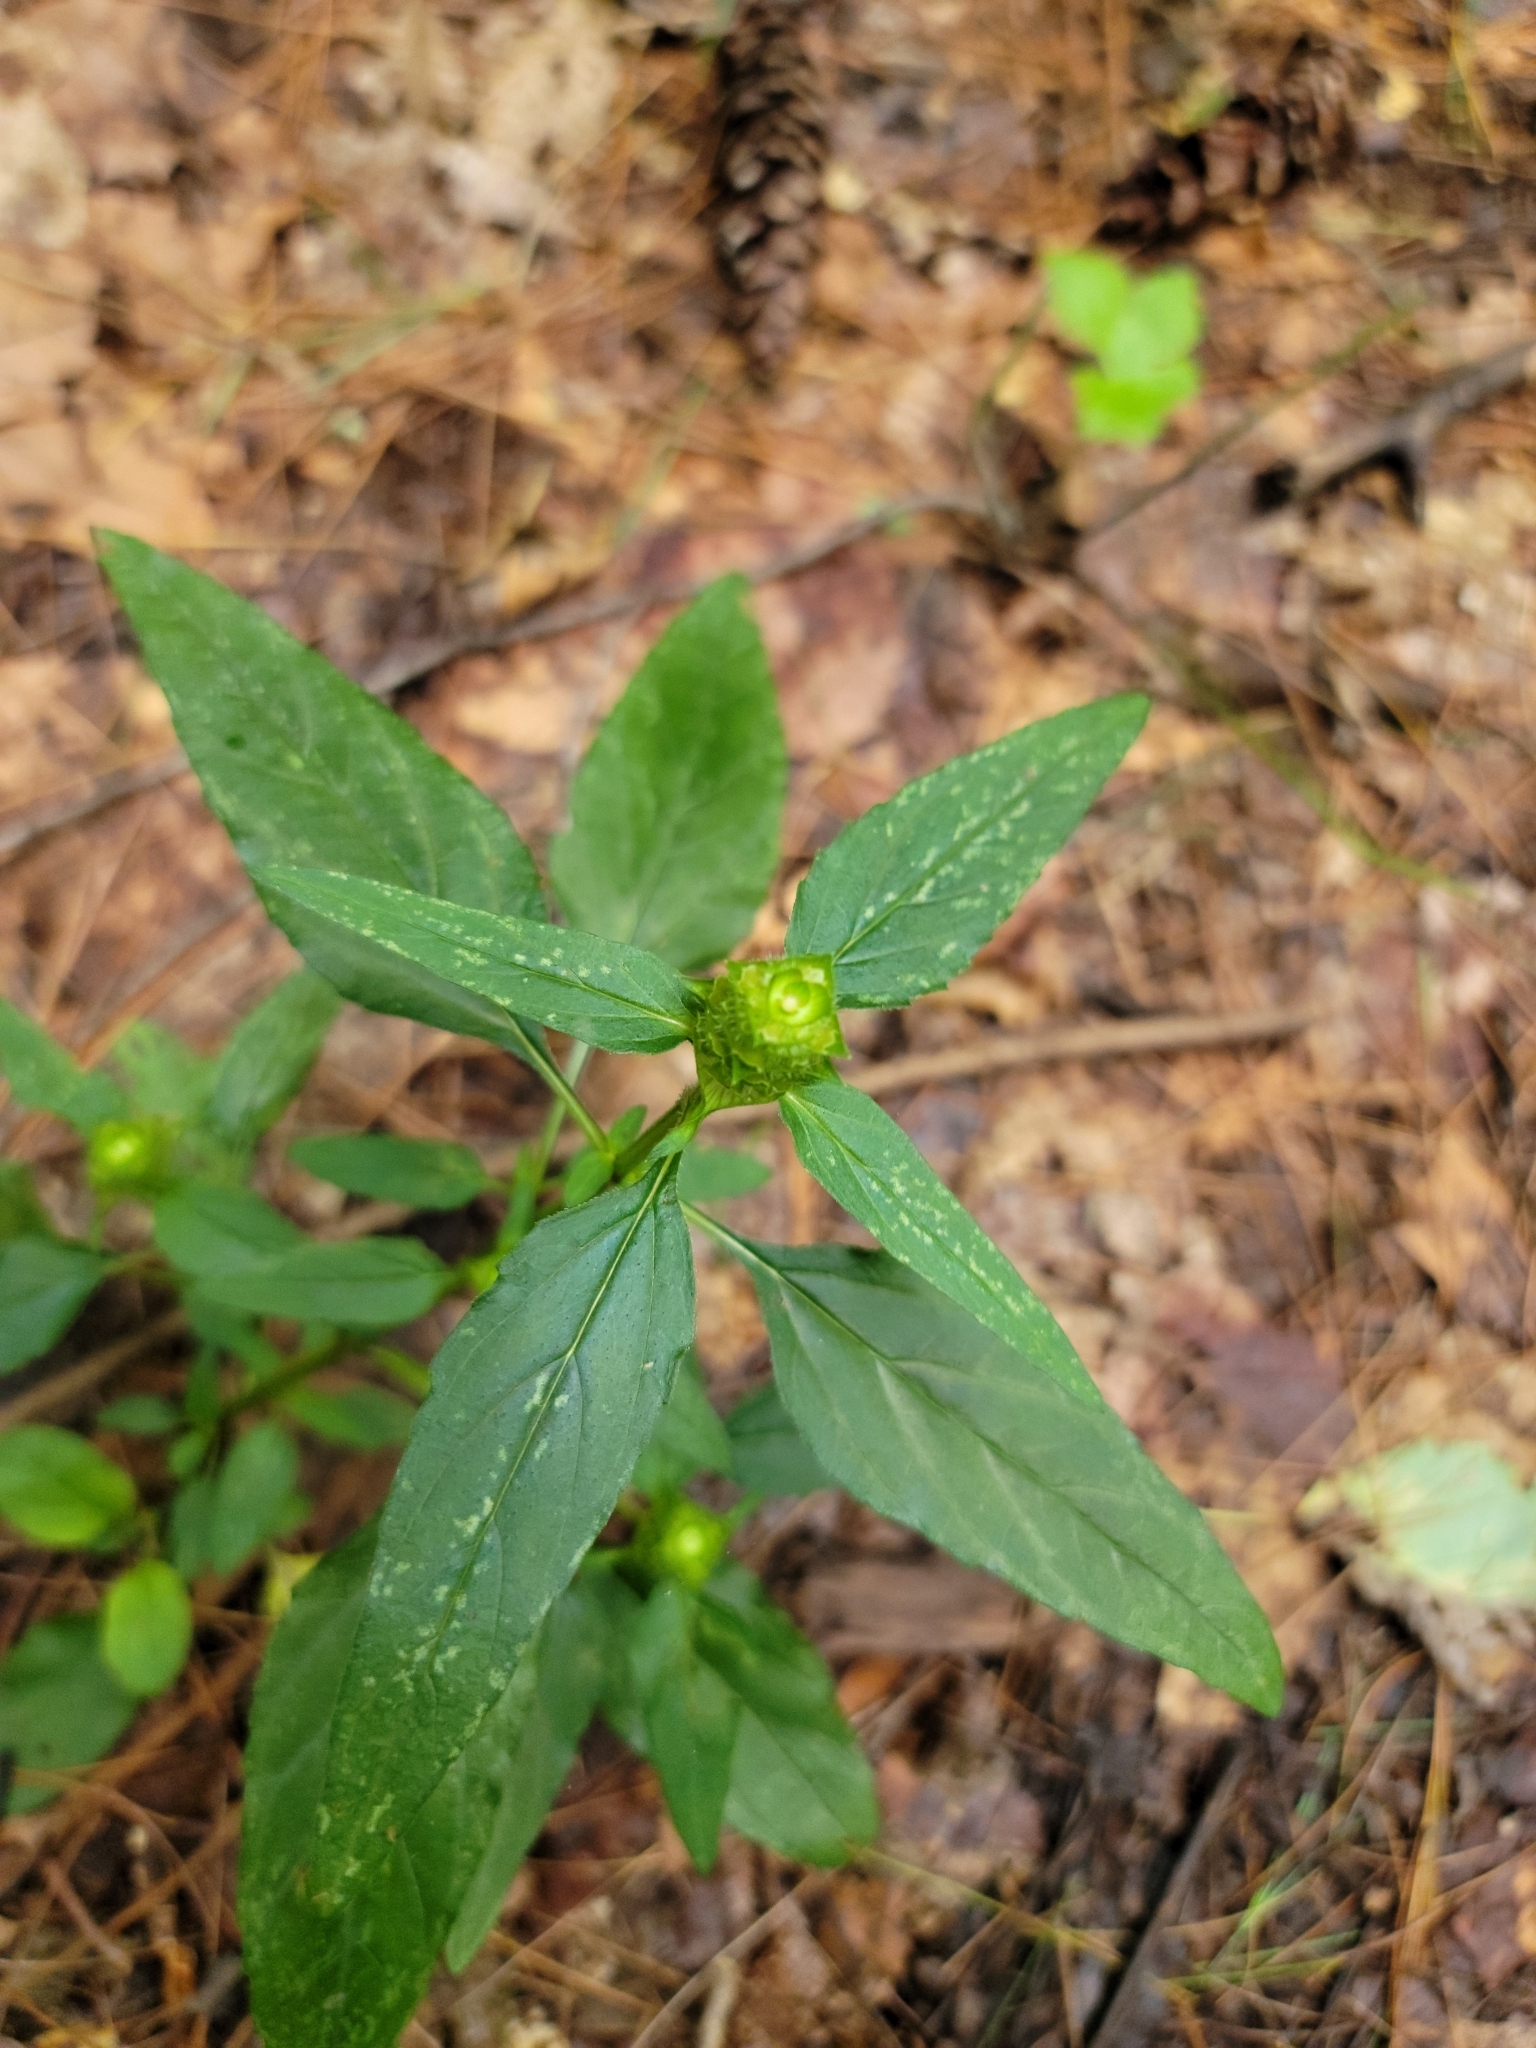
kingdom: Plantae
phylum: Tracheophyta
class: Magnoliopsida
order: Lamiales
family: Lamiaceae
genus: Prunella
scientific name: Prunella vulgaris
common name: Heal-all
